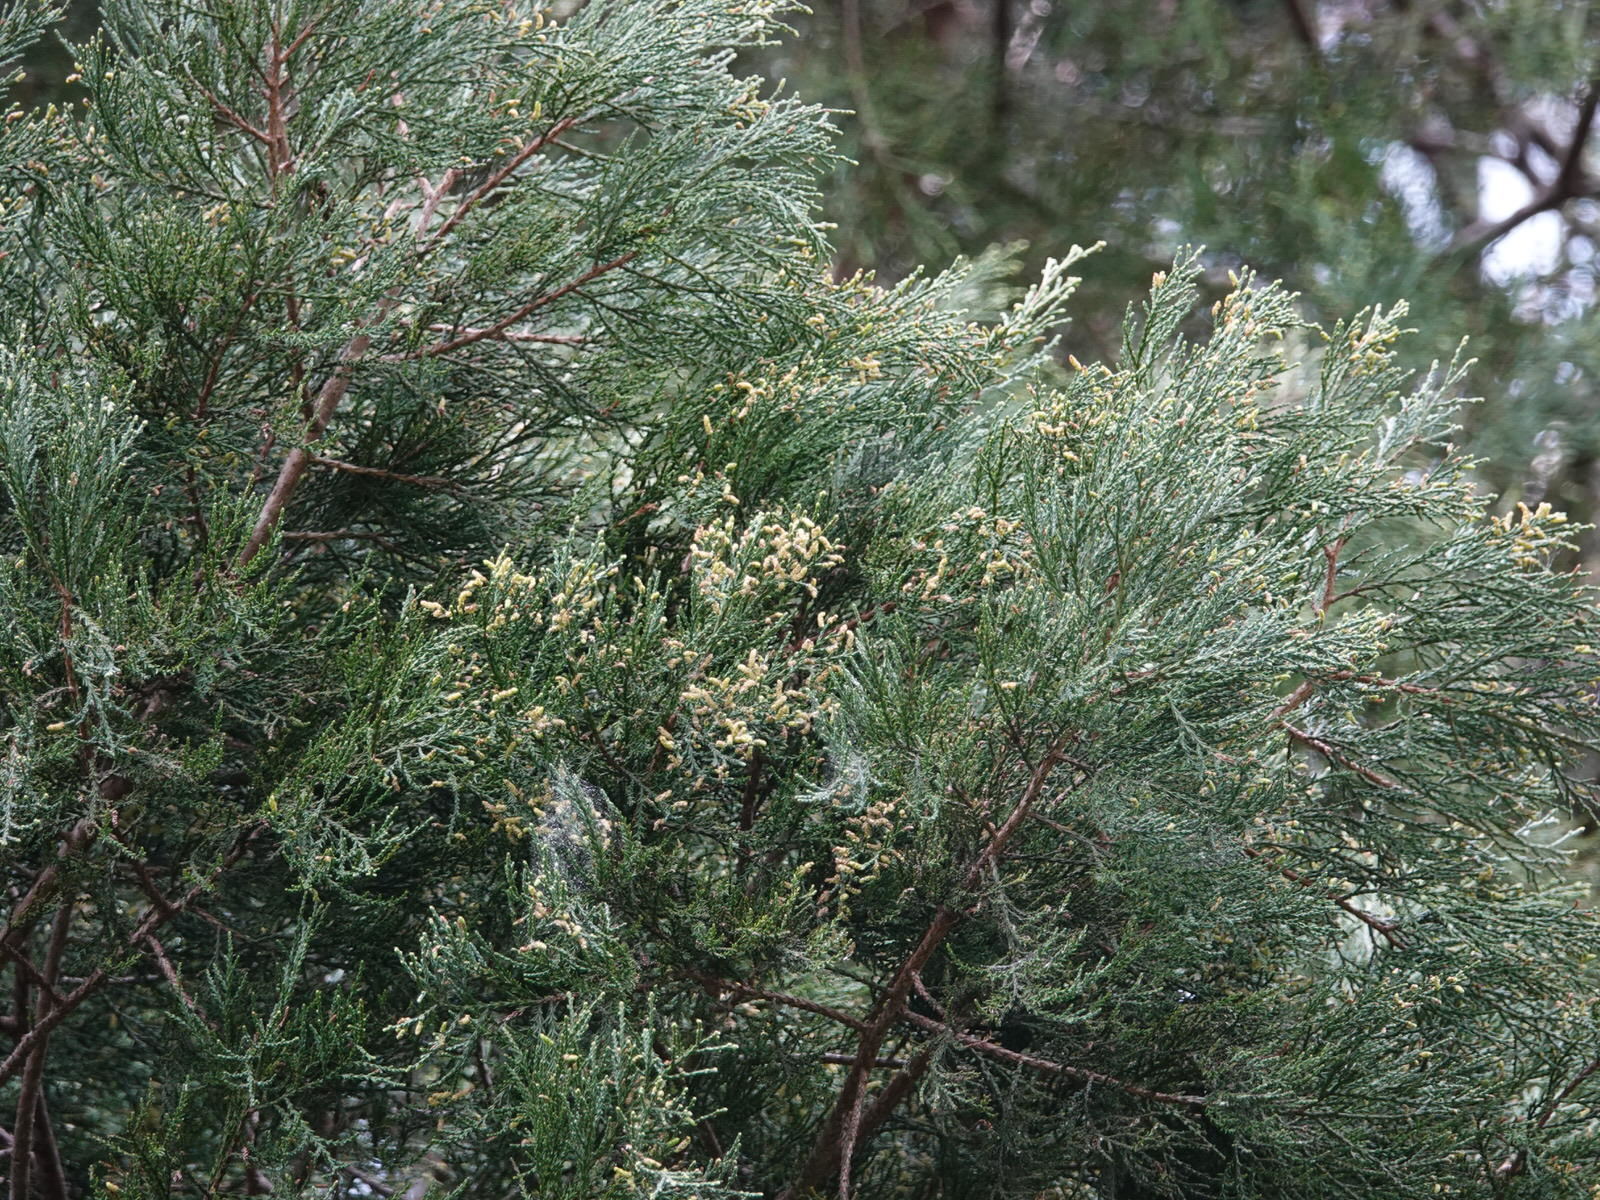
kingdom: Plantae
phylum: Tracheophyta
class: Pinopsida
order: Pinales
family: Podocarpaceae
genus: Dacrycarpus
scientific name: Dacrycarpus dacrydioides
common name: White pine
